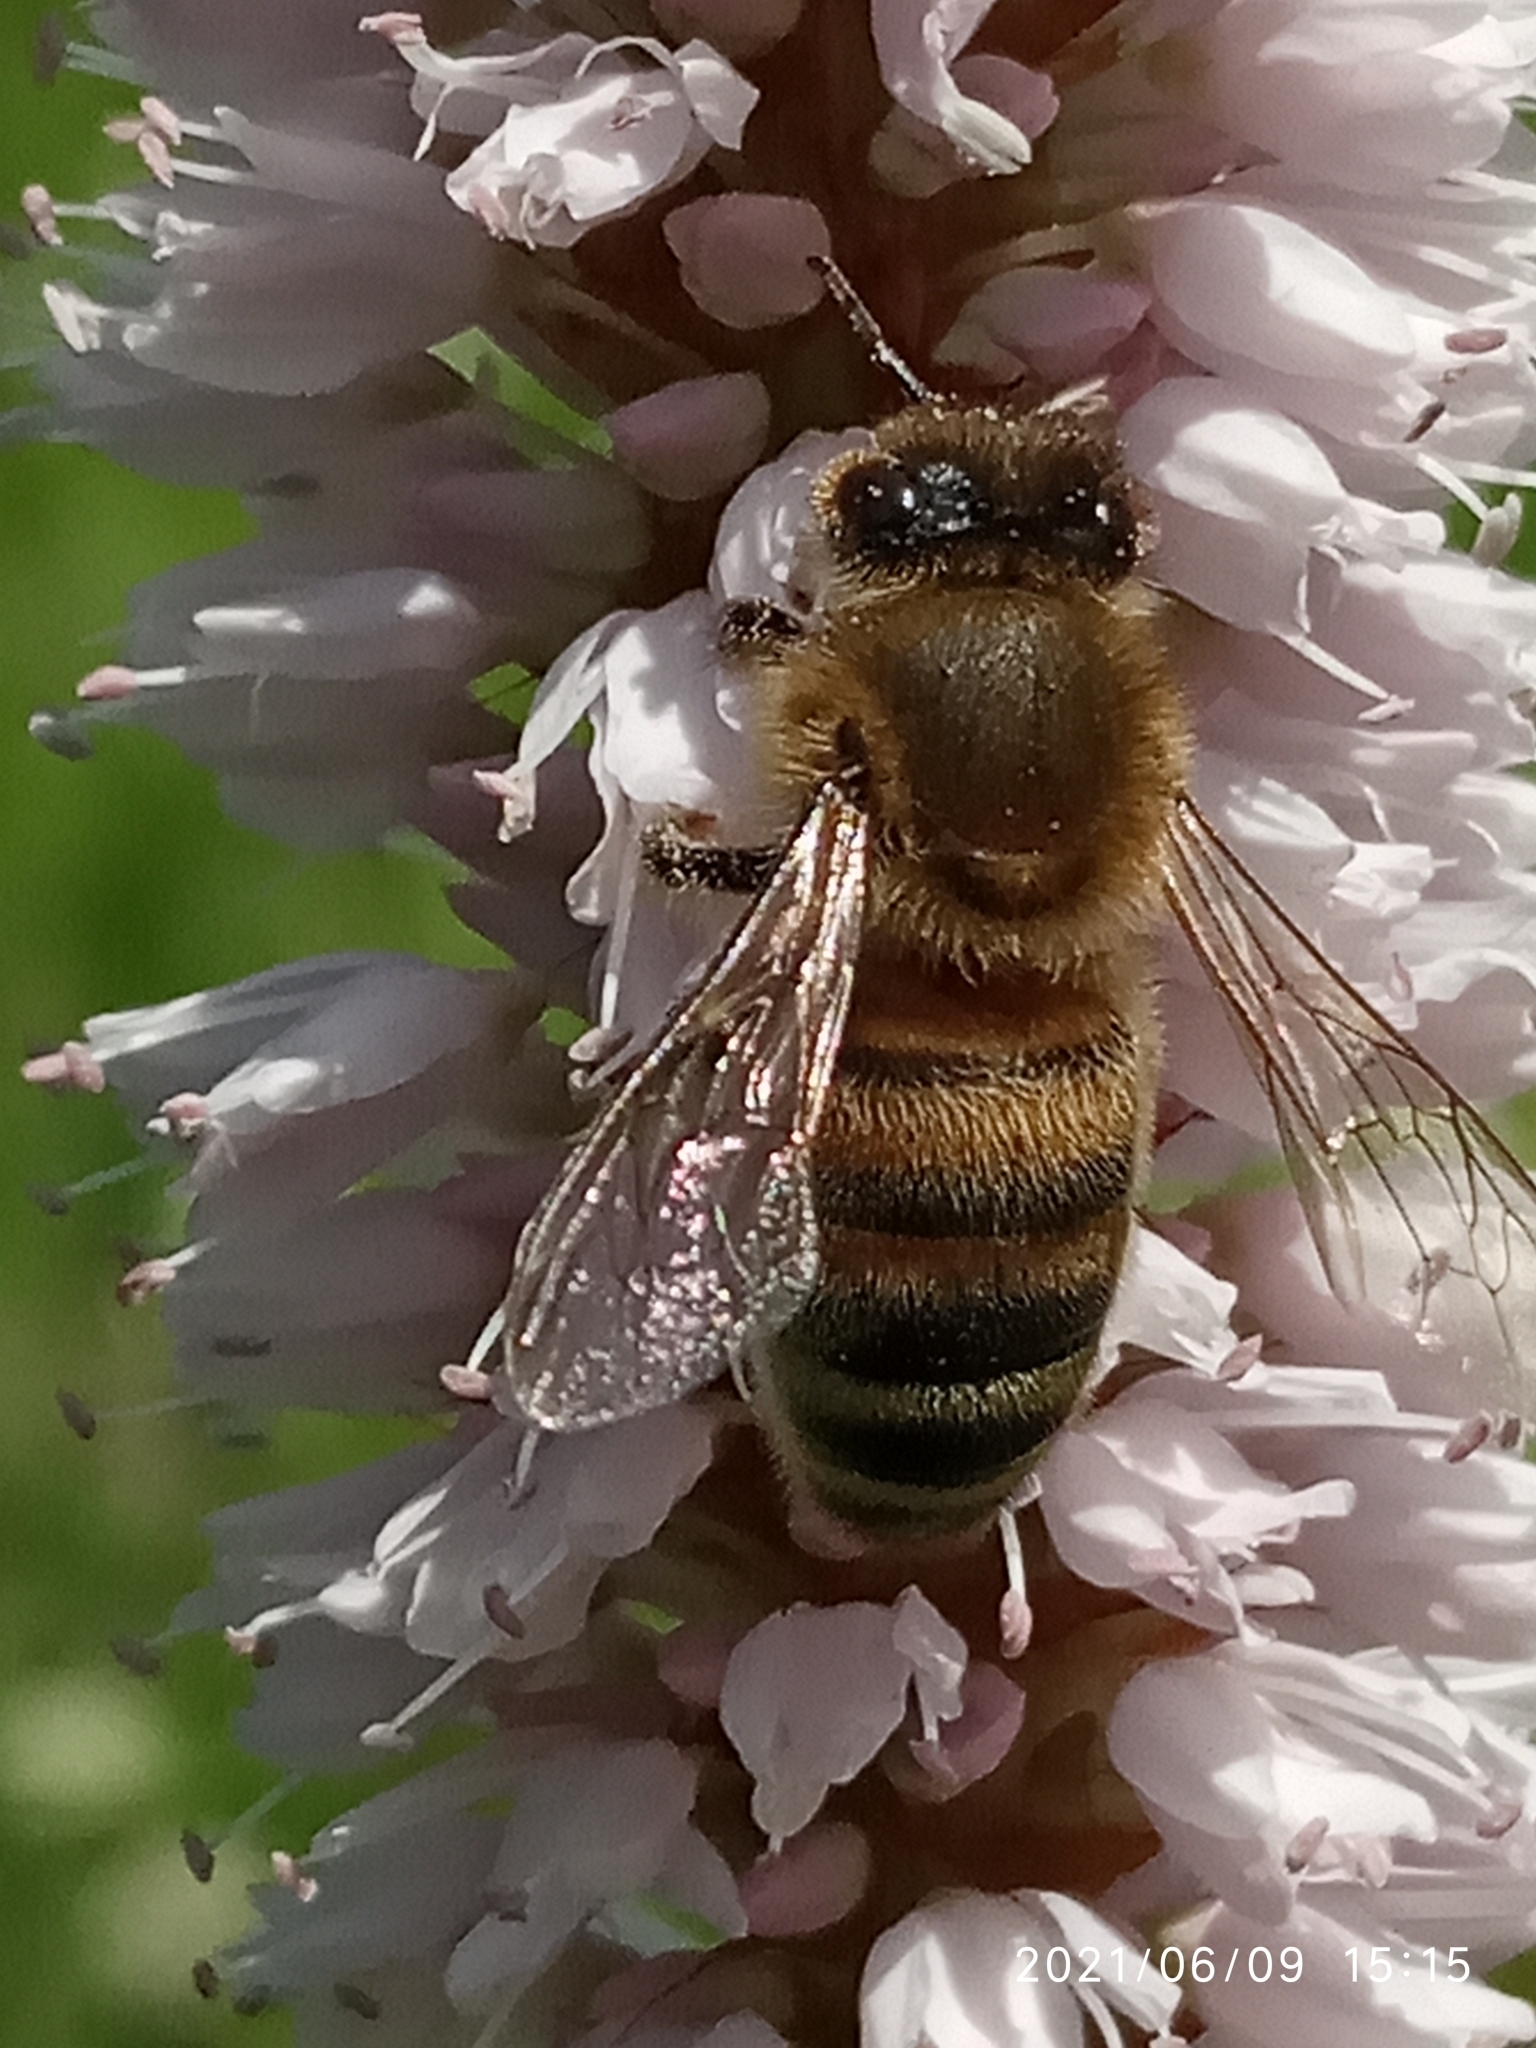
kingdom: Animalia
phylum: Arthropoda
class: Insecta
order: Hymenoptera
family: Apidae
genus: Apis
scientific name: Apis mellifera
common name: Honey bee
